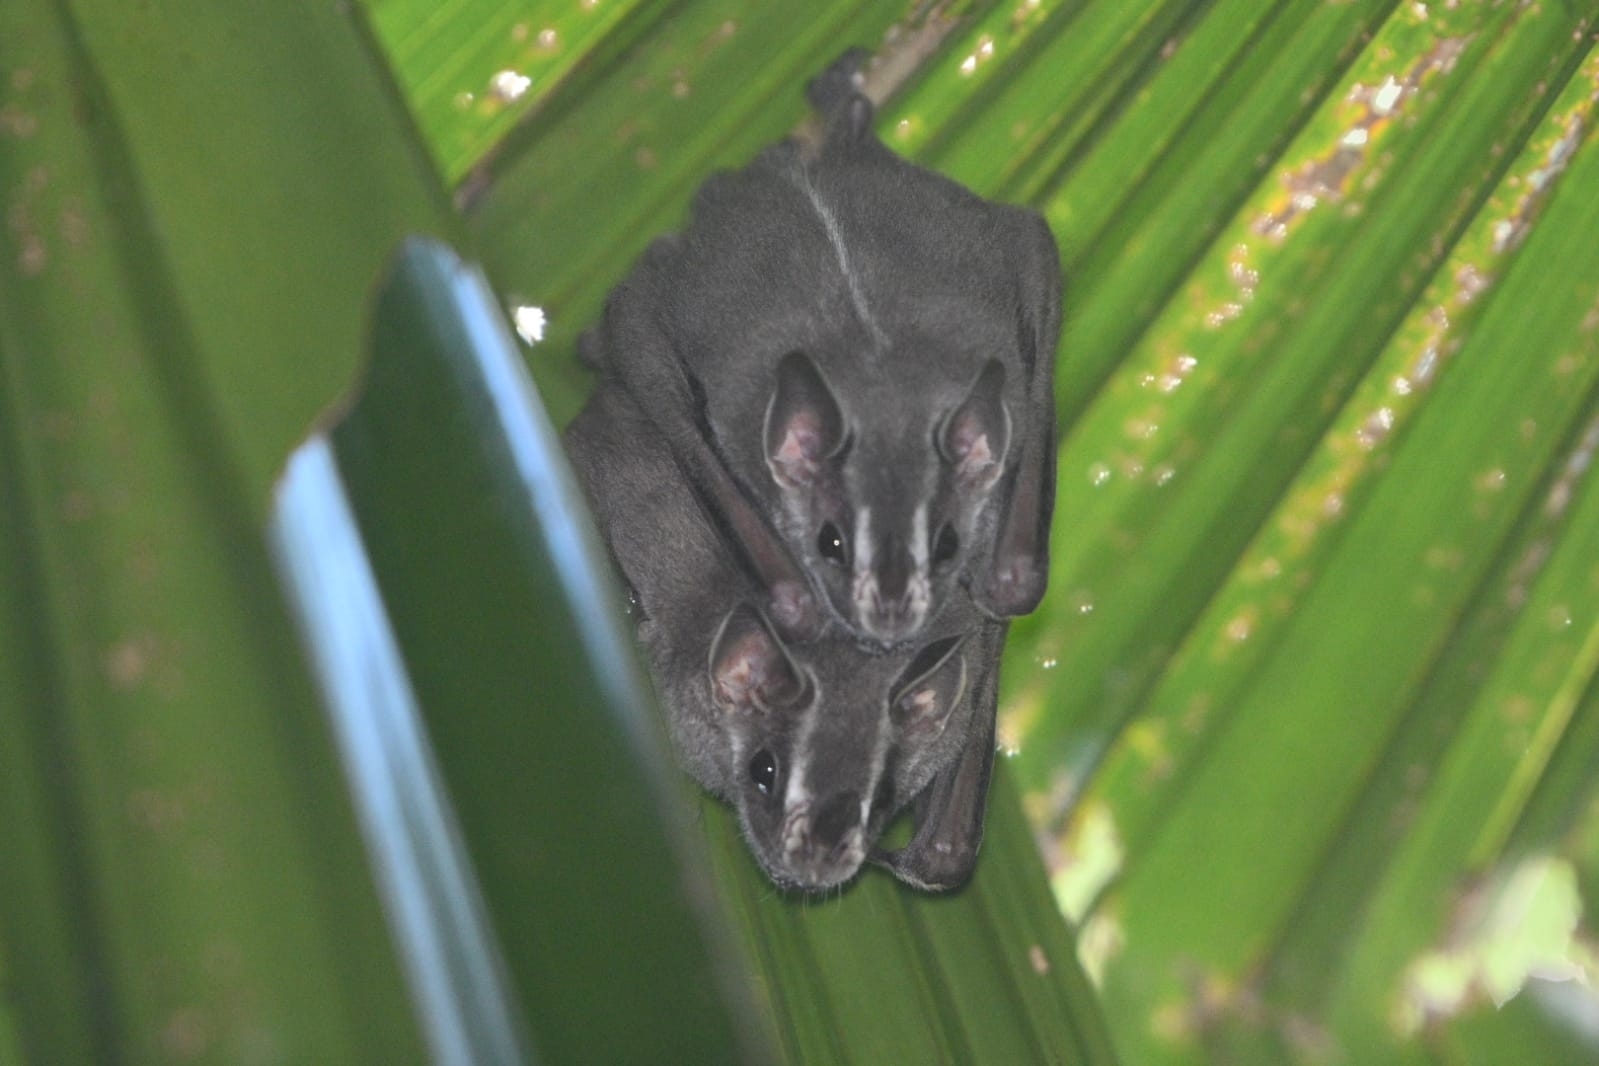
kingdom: Animalia
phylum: Chordata
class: Mammalia
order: Chiroptera
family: Phyllostomidae
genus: Uroderma
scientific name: Uroderma bilobatum
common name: Common tent-making bat
